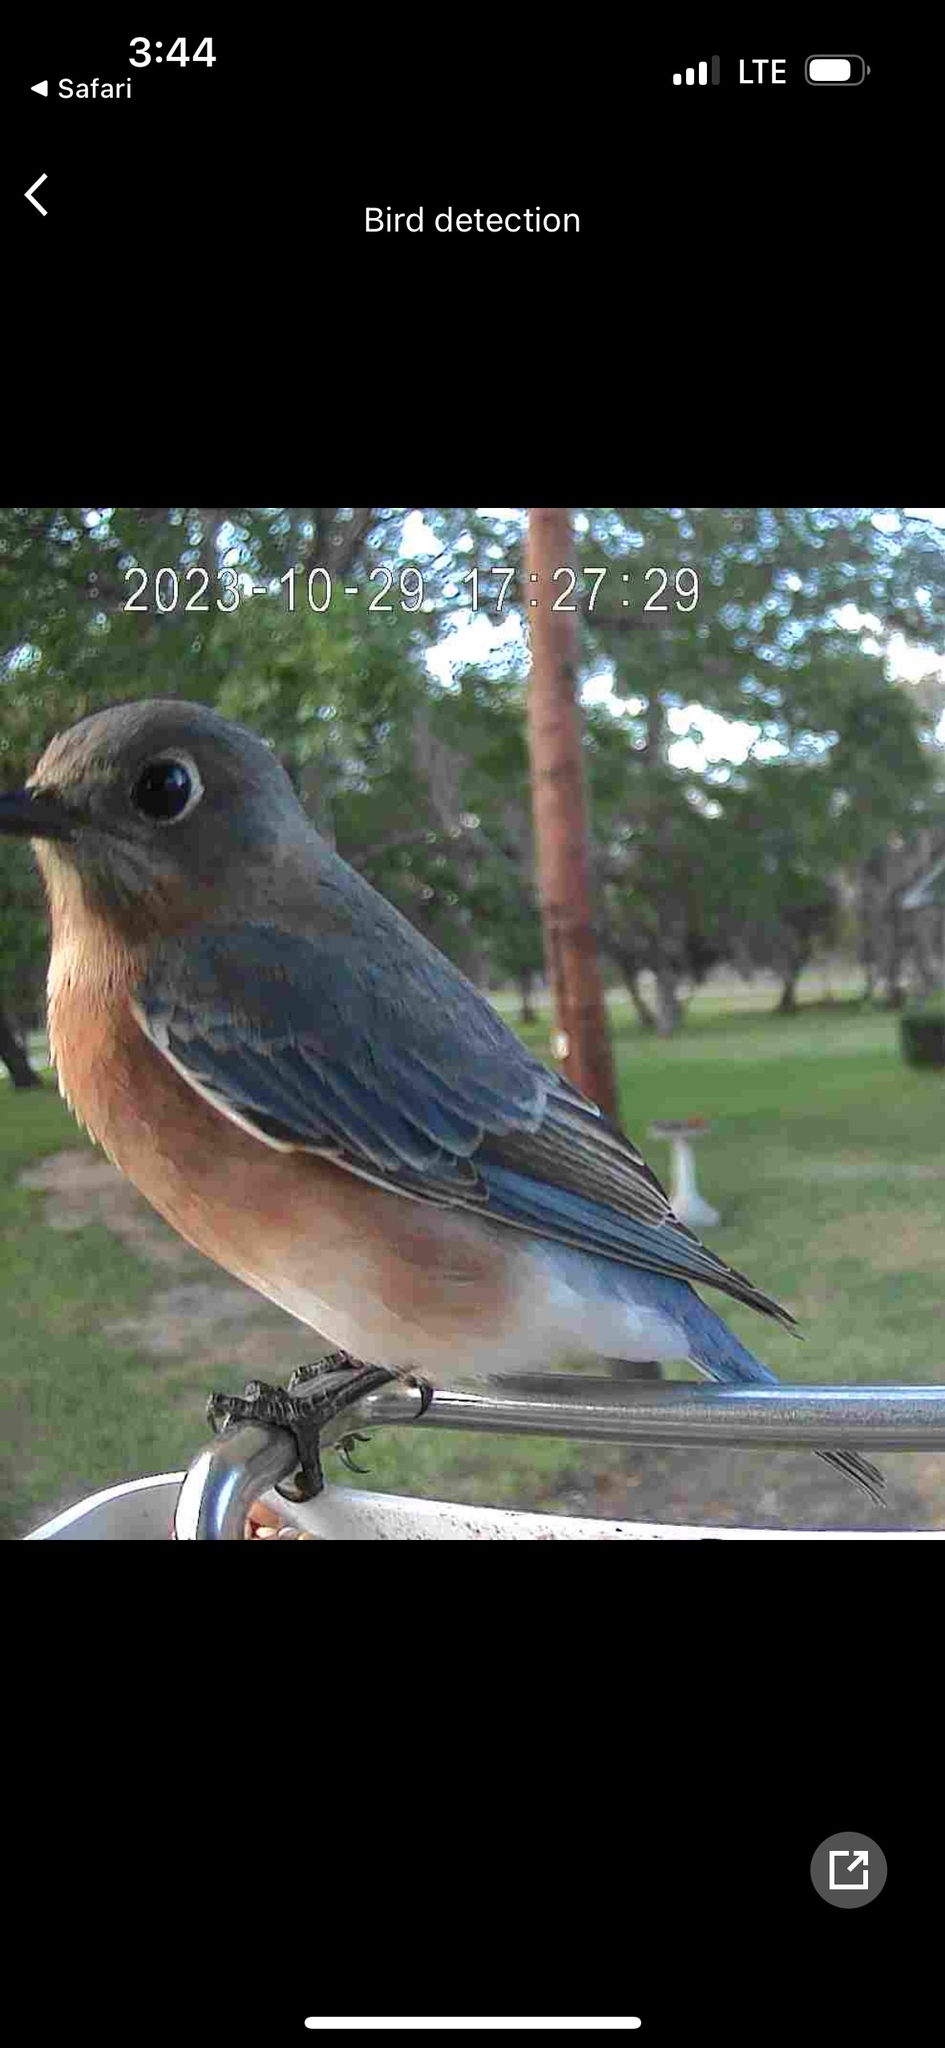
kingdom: Animalia
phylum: Chordata
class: Aves
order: Passeriformes
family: Turdidae
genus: Sialia
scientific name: Sialia sialis
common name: Eastern bluebird
